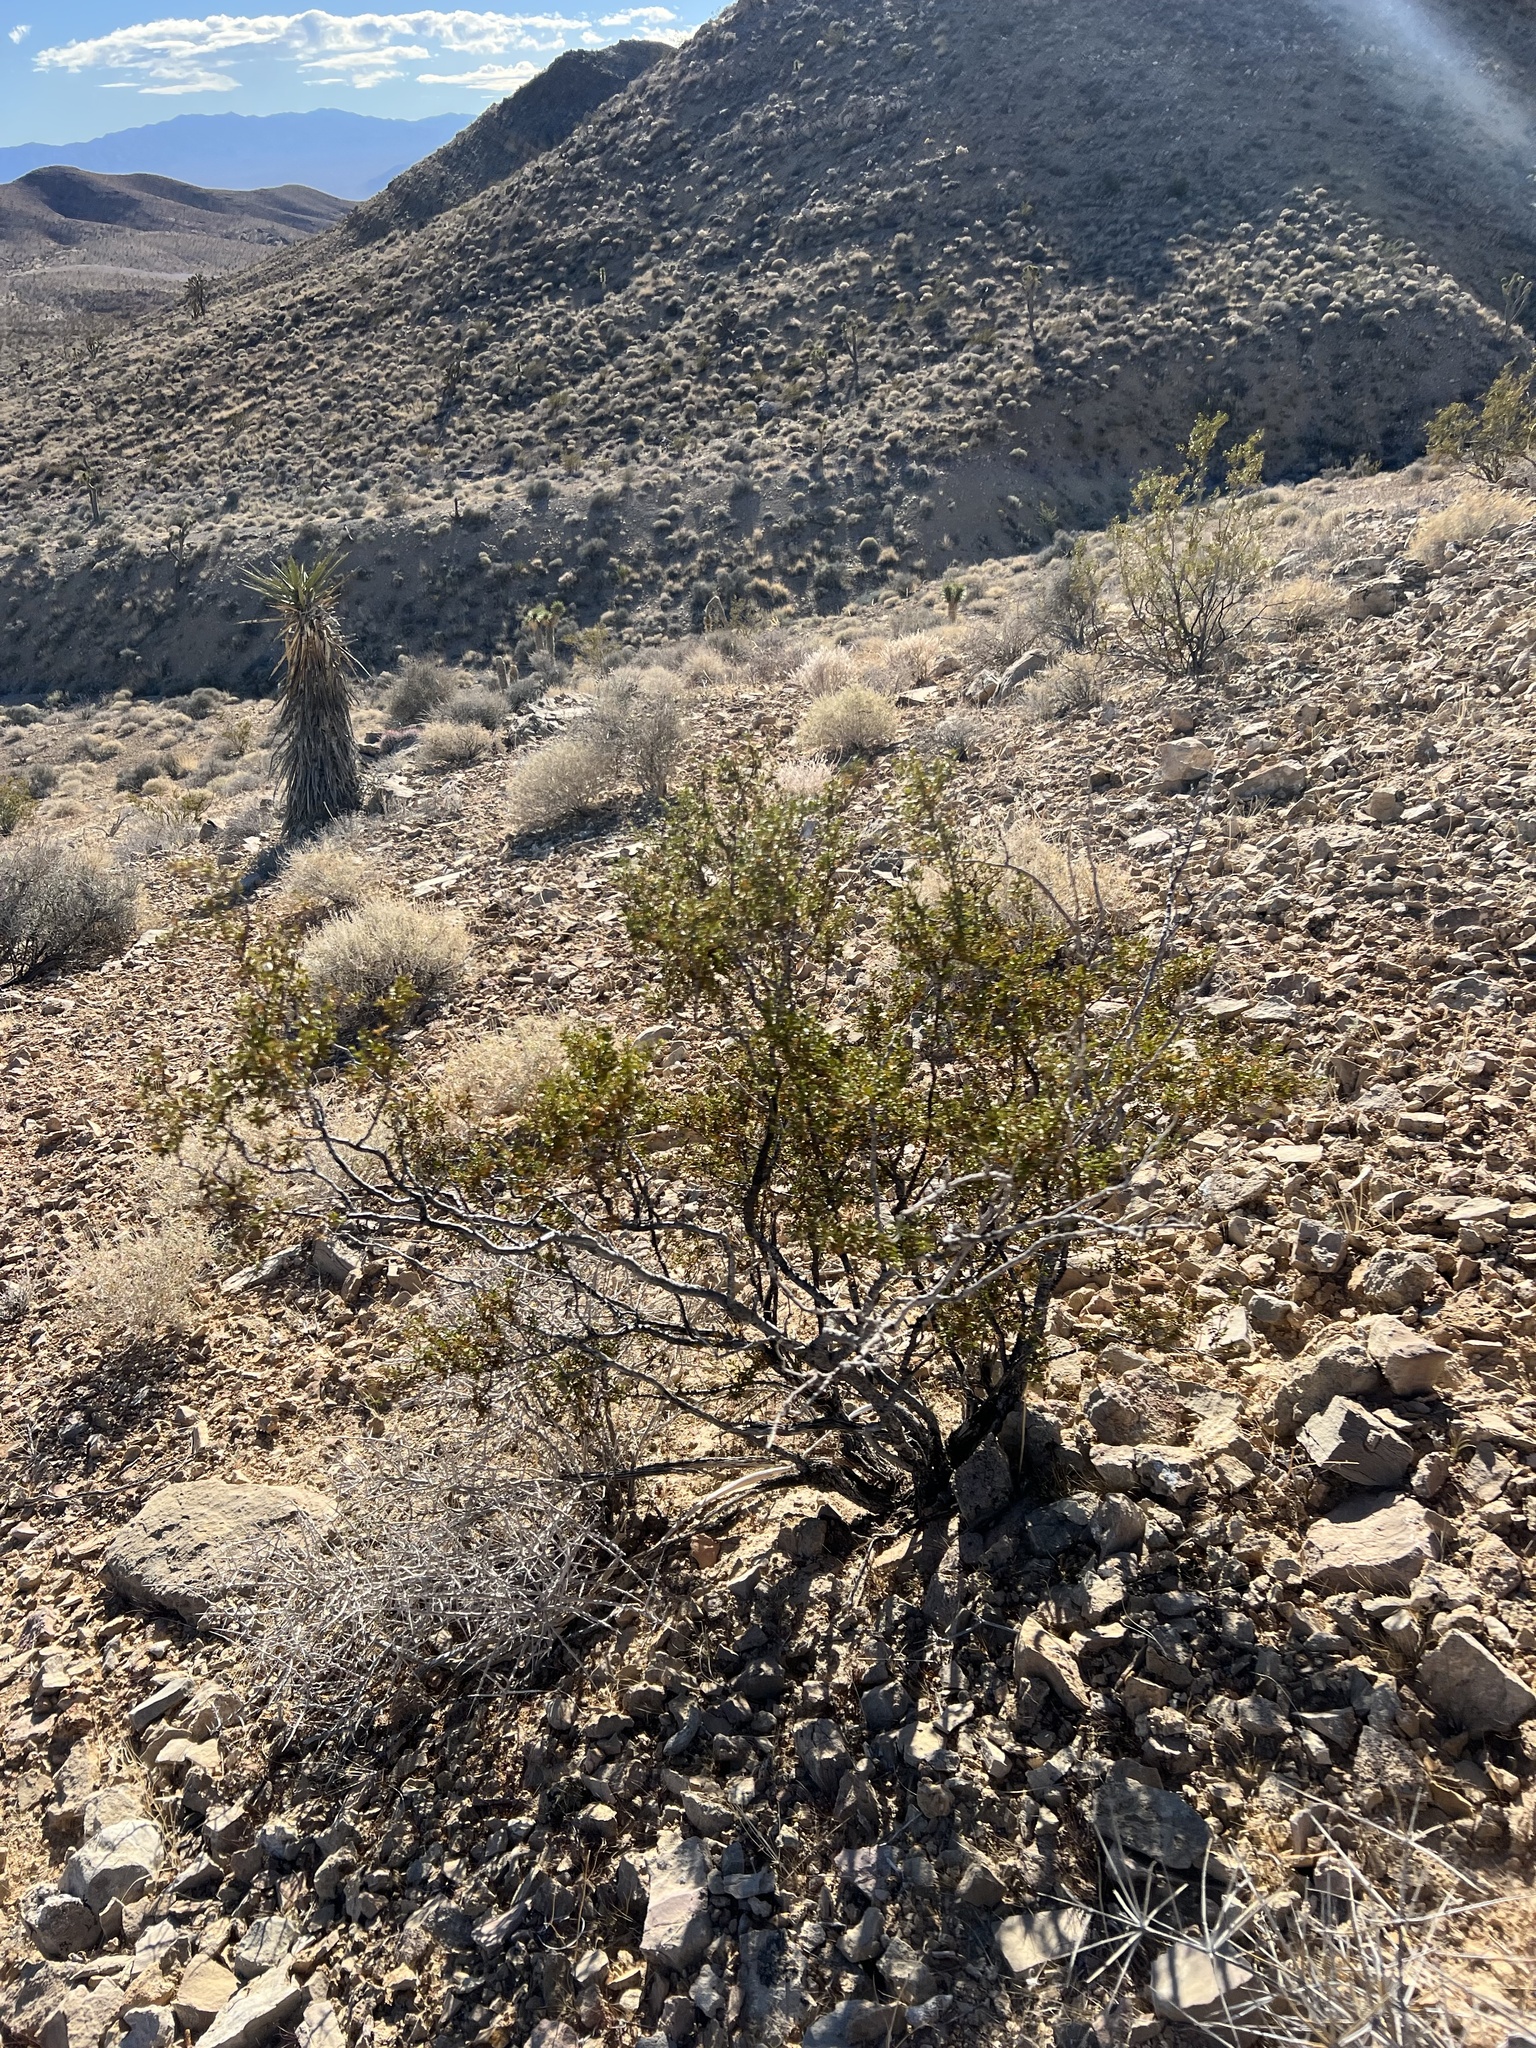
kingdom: Plantae
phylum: Tracheophyta
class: Magnoliopsida
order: Zygophyllales
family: Zygophyllaceae
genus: Larrea
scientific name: Larrea tridentata
